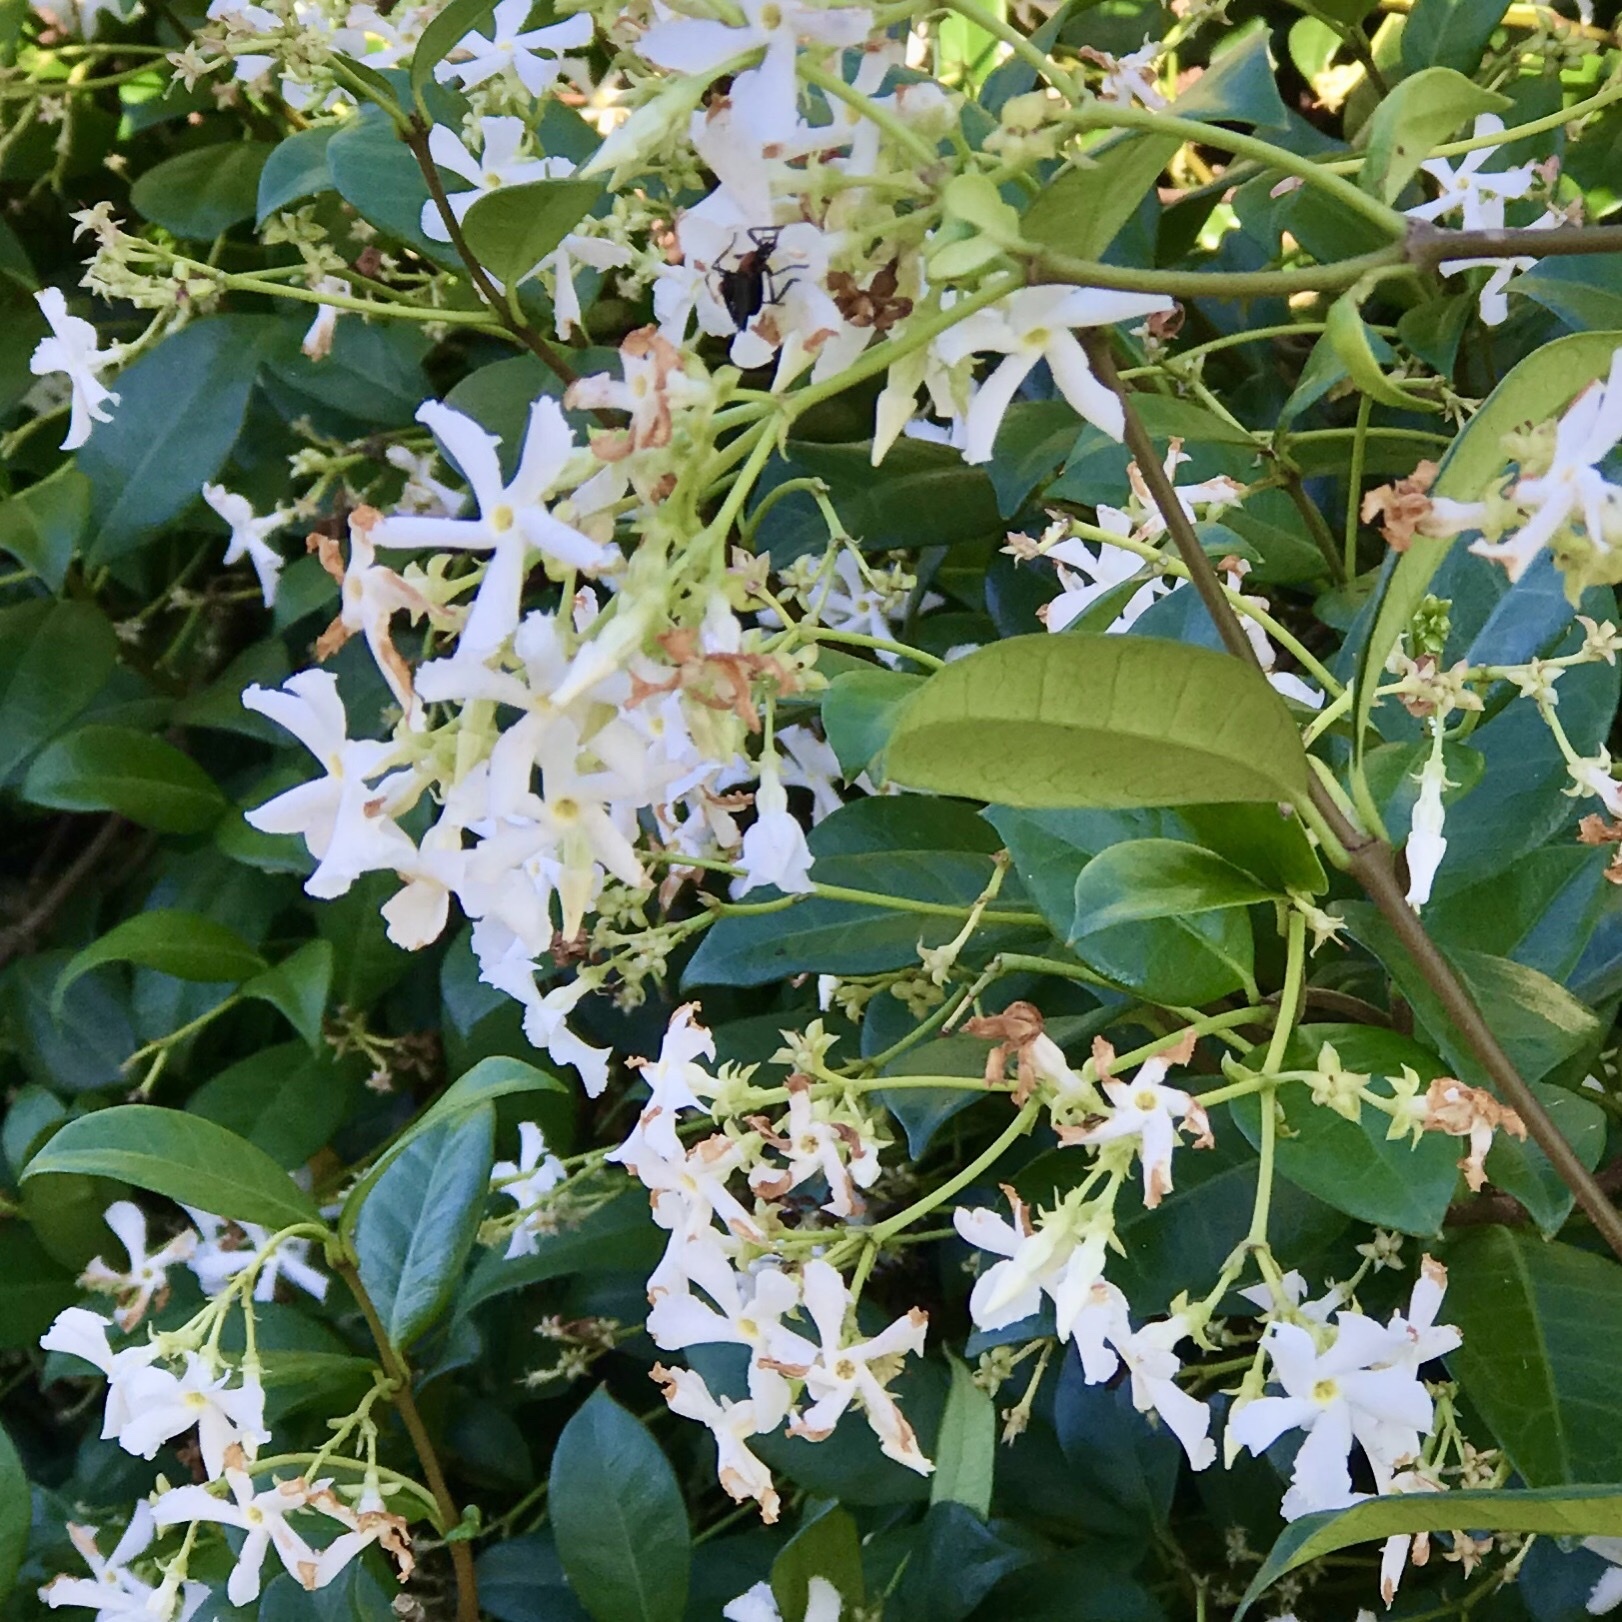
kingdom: Plantae
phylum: Tracheophyta
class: Magnoliopsida
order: Gentianales
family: Apocynaceae
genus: Trachelospermum
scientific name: Trachelospermum jasminoides
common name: Confederate jasmine
